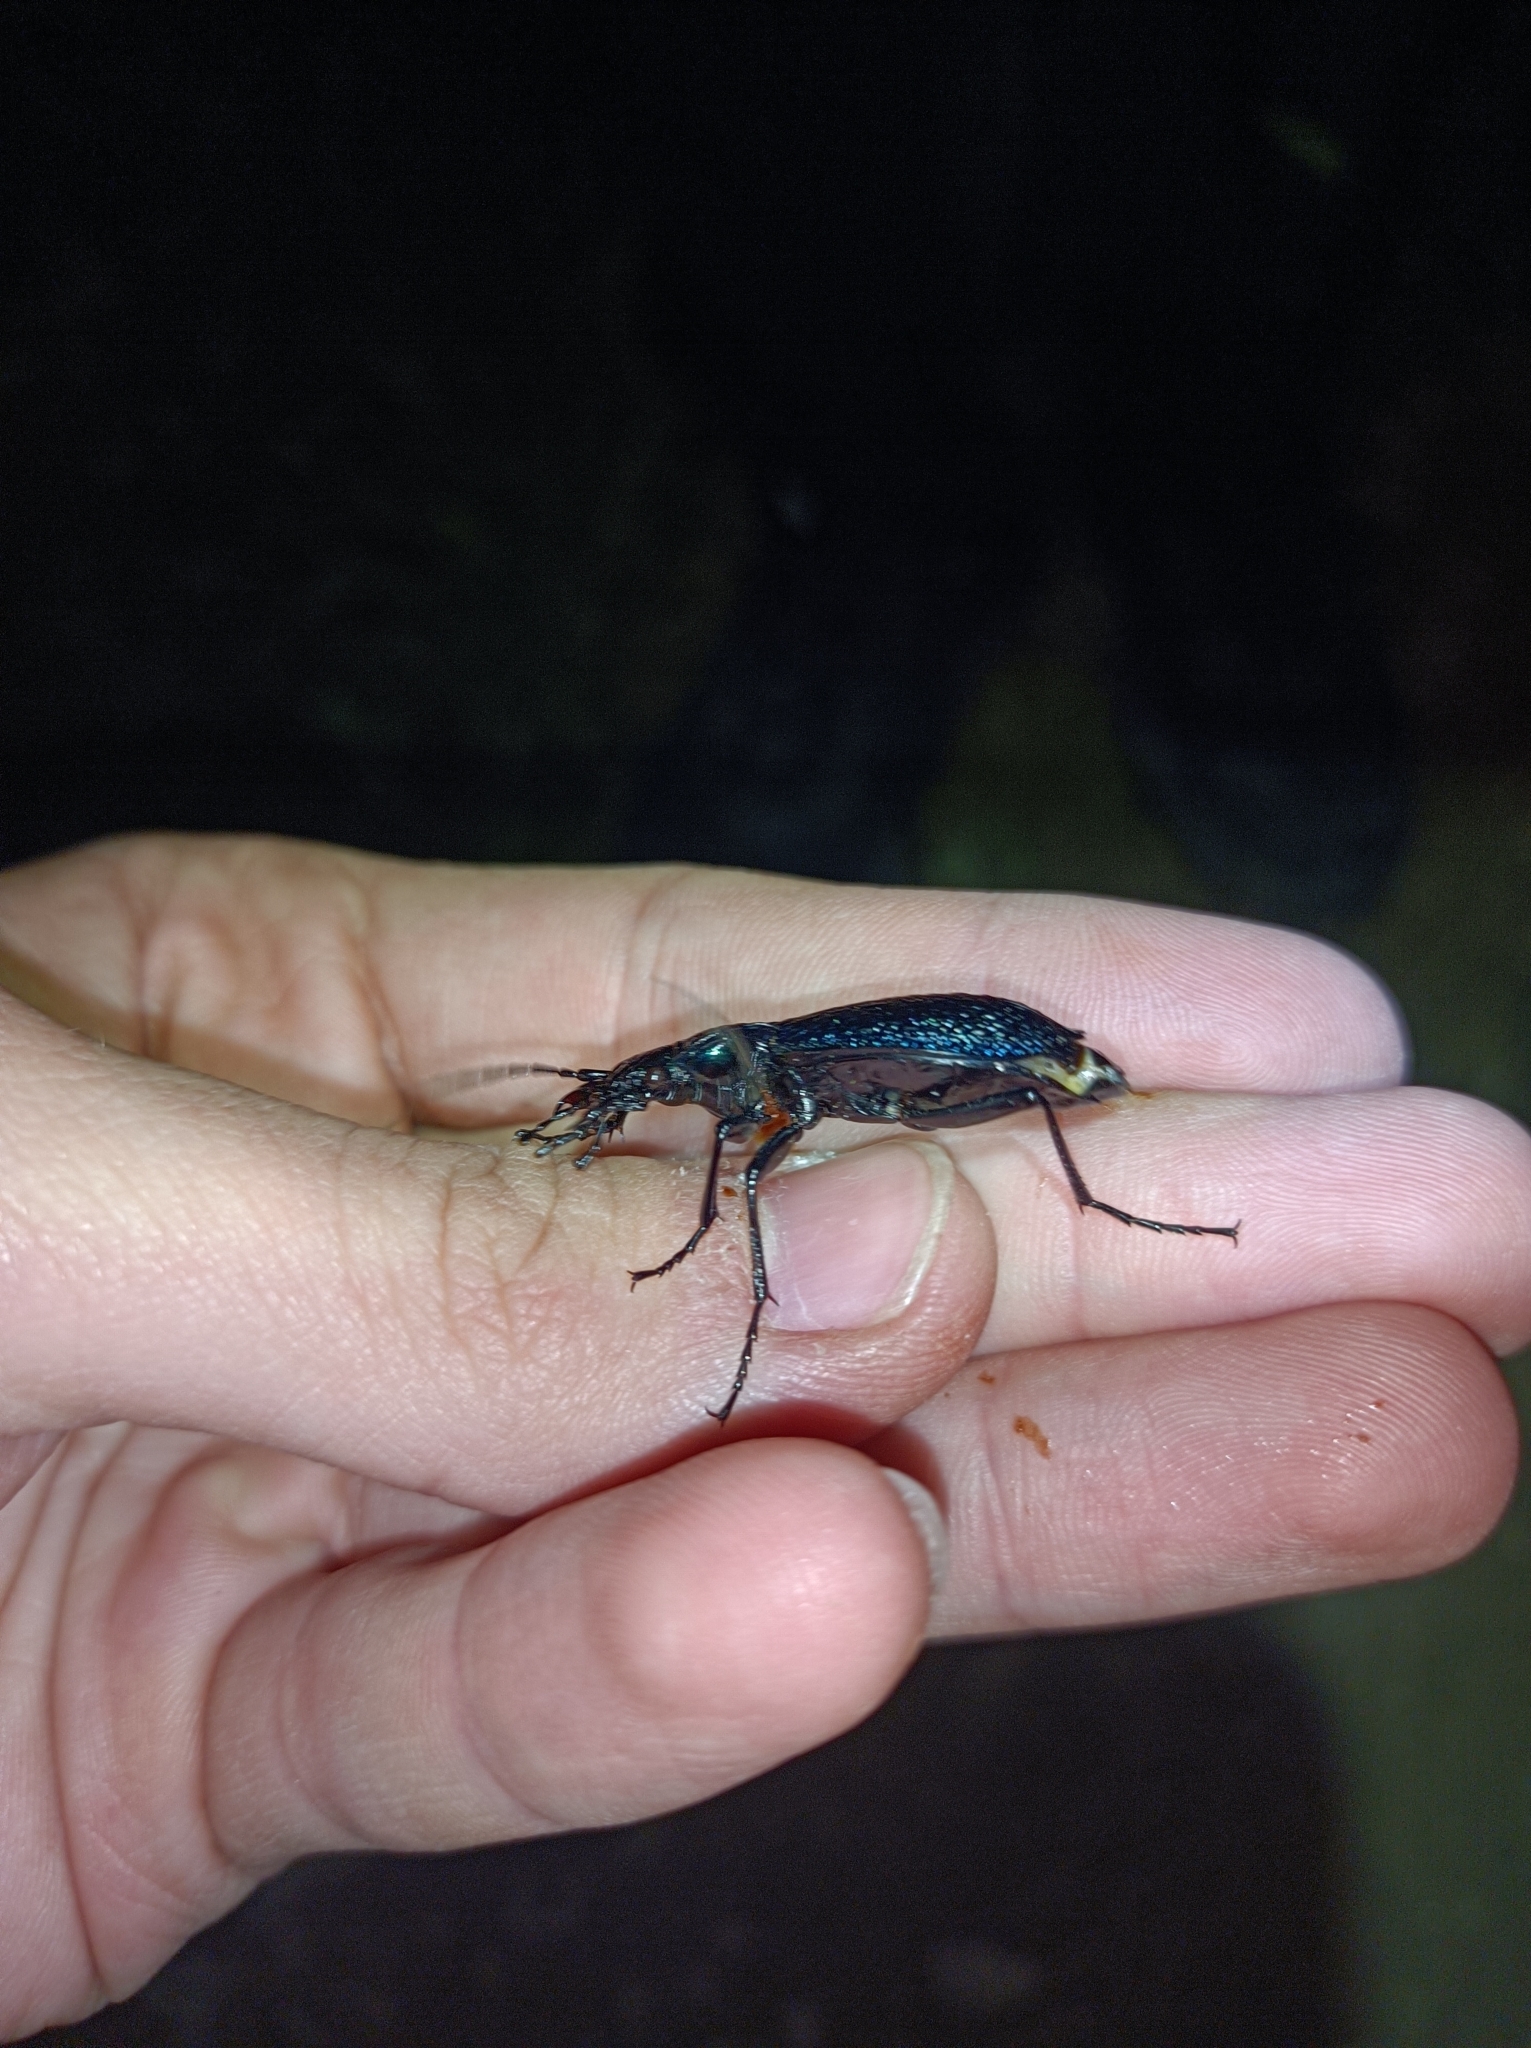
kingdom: Animalia
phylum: Arthropoda
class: Insecta
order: Coleoptera
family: Carabidae
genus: Carabus
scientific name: Carabus intricatus
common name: Blue ground beetle
